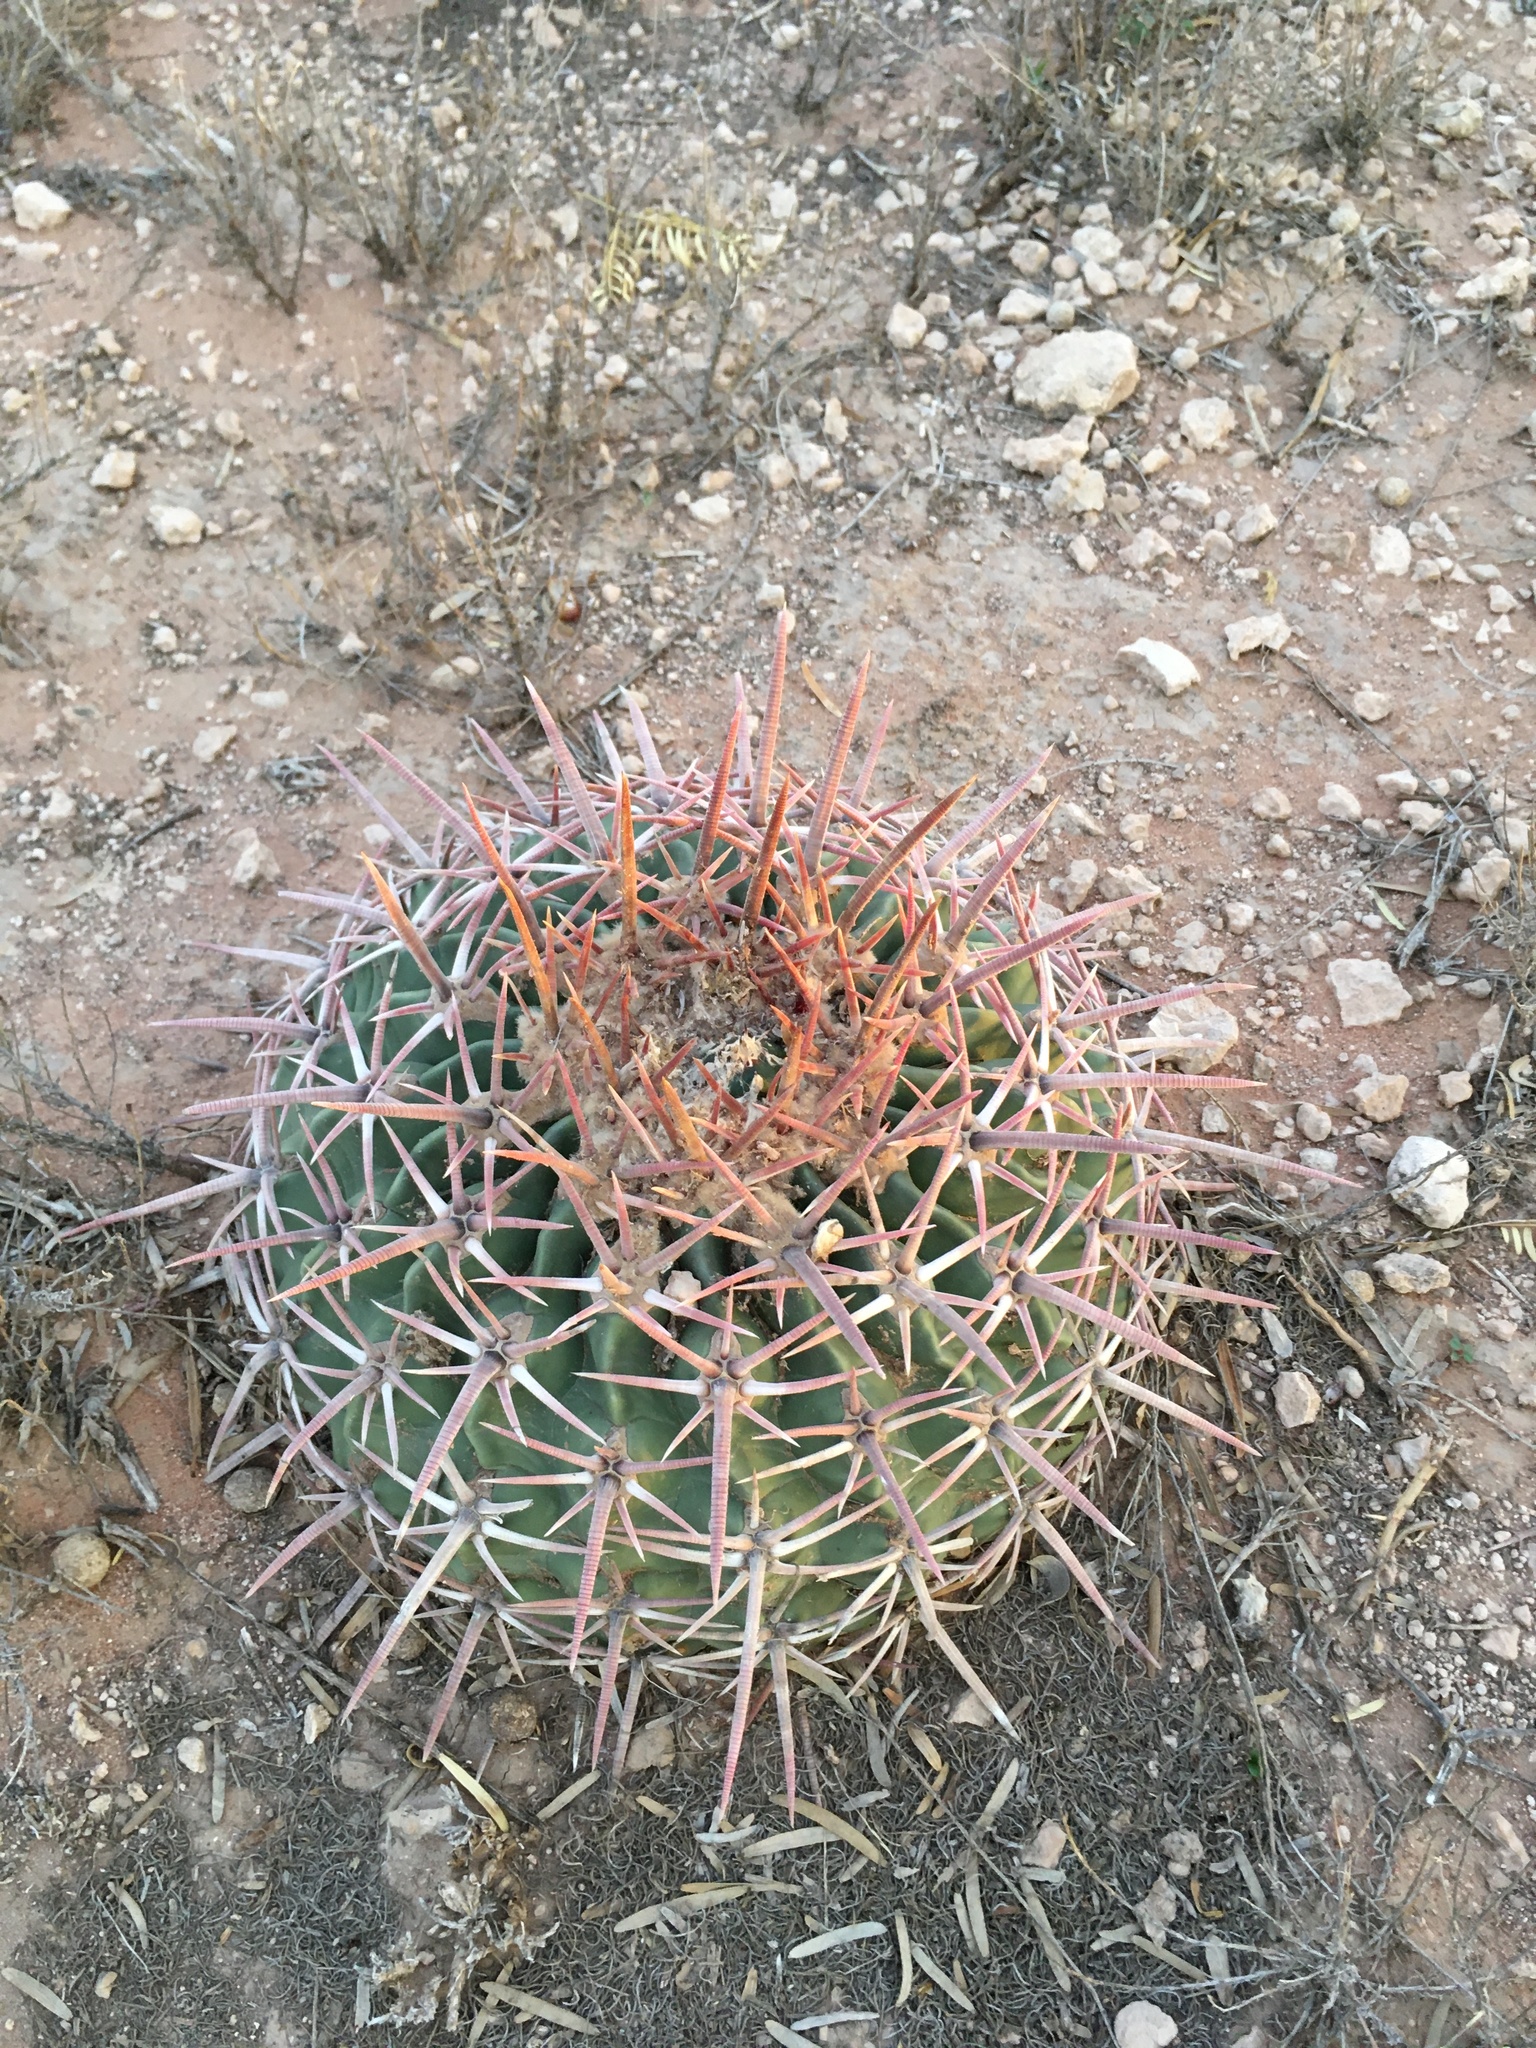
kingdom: Plantae
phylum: Tracheophyta
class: Magnoliopsida
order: Caryophyllales
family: Cactaceae
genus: Echinocactus
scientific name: Echinocactus texensis
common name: Devil's pincushion
